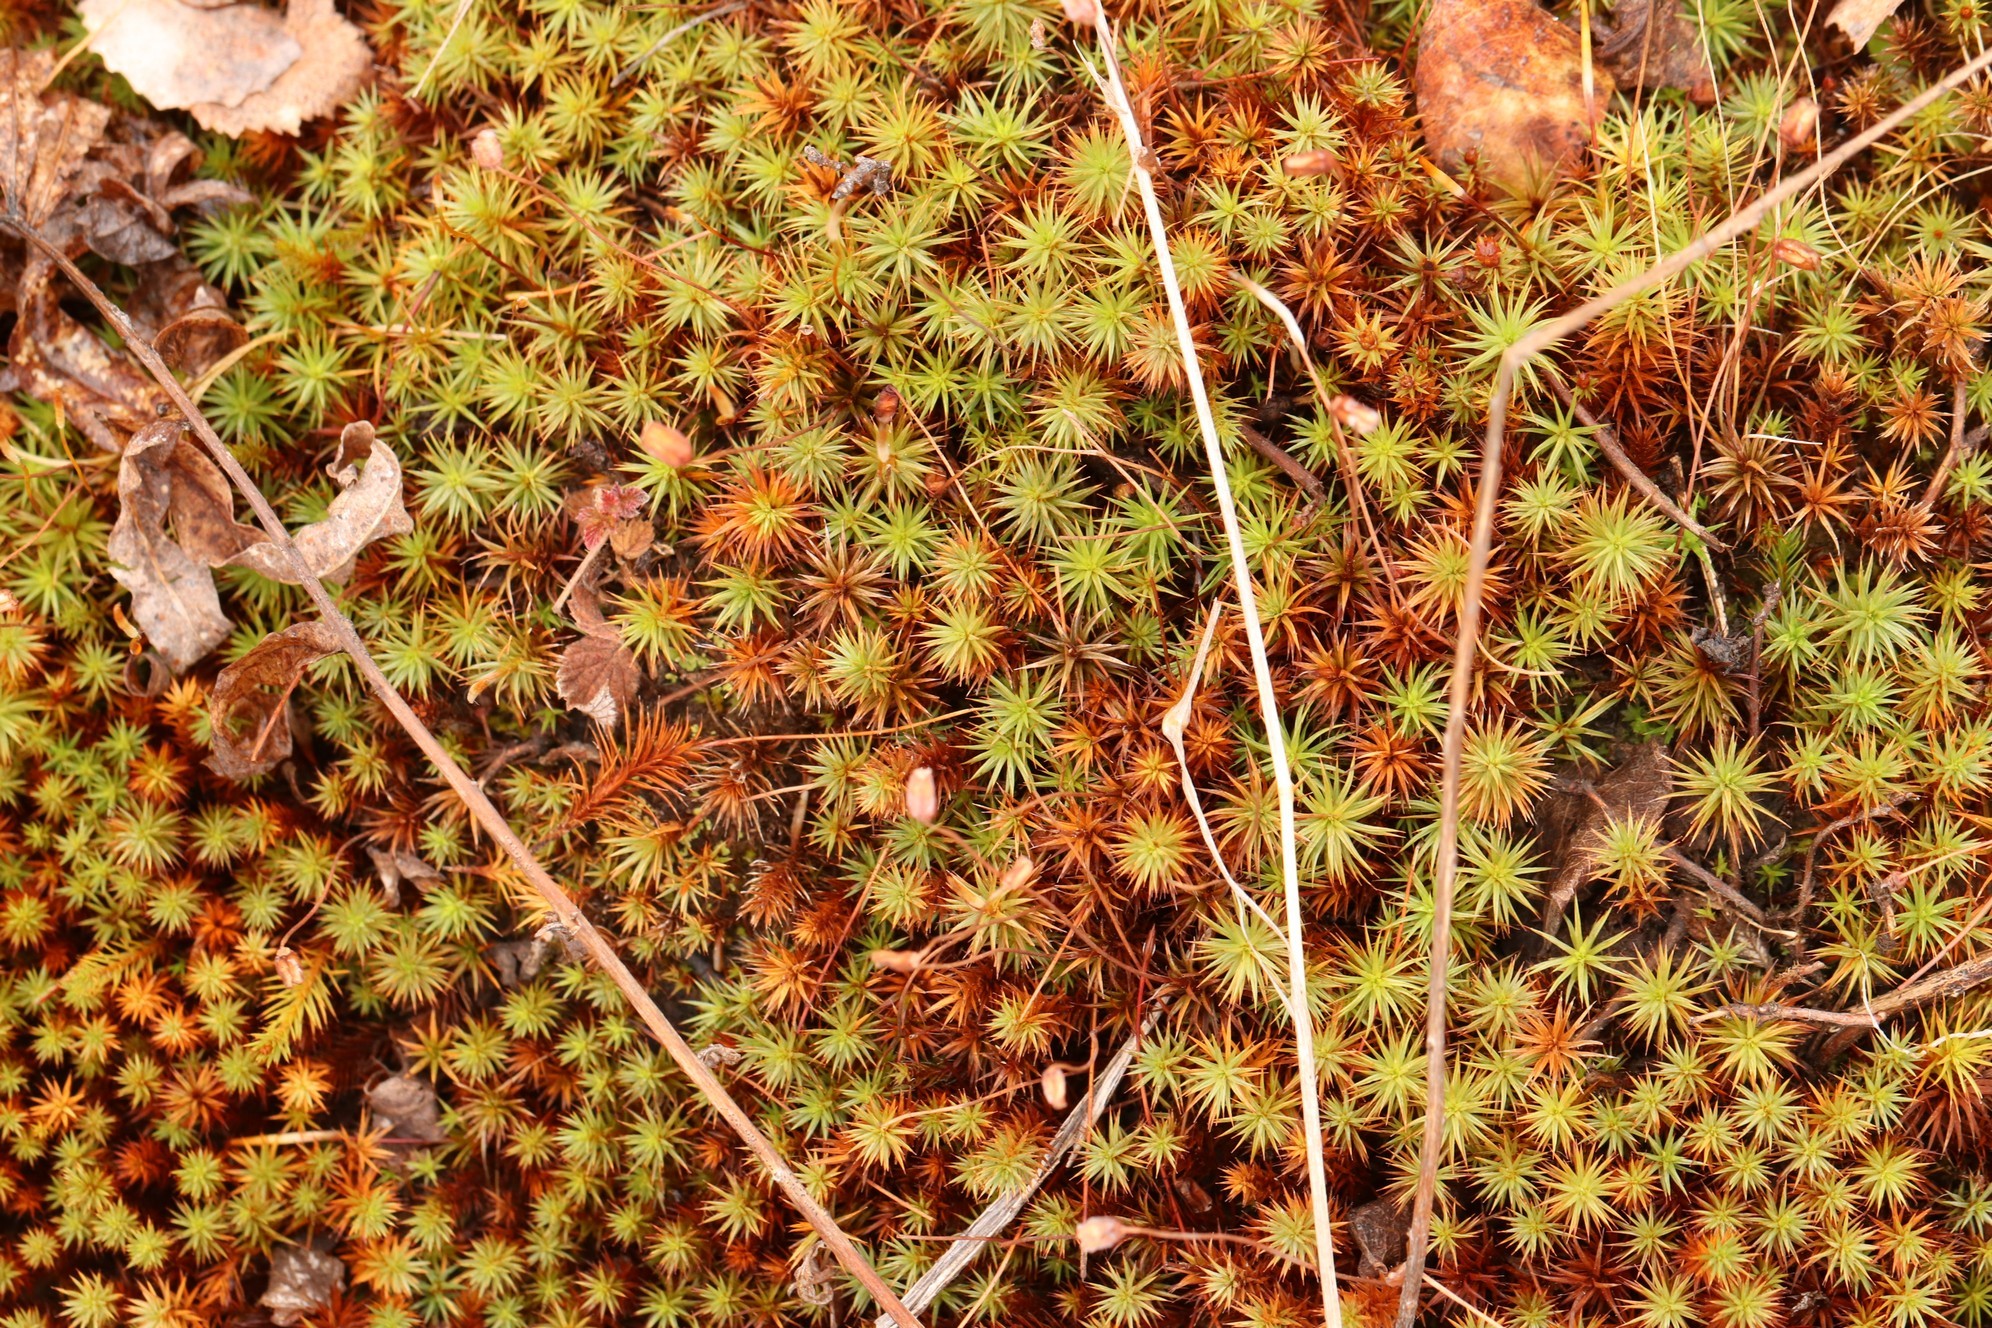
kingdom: Plantae
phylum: Bryophyta
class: Polytrichopsida
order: Polytrichales
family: Polytrichaceae
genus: Polytrichum
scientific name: Polytrichum juniperinum
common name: Juniper haircap moss
